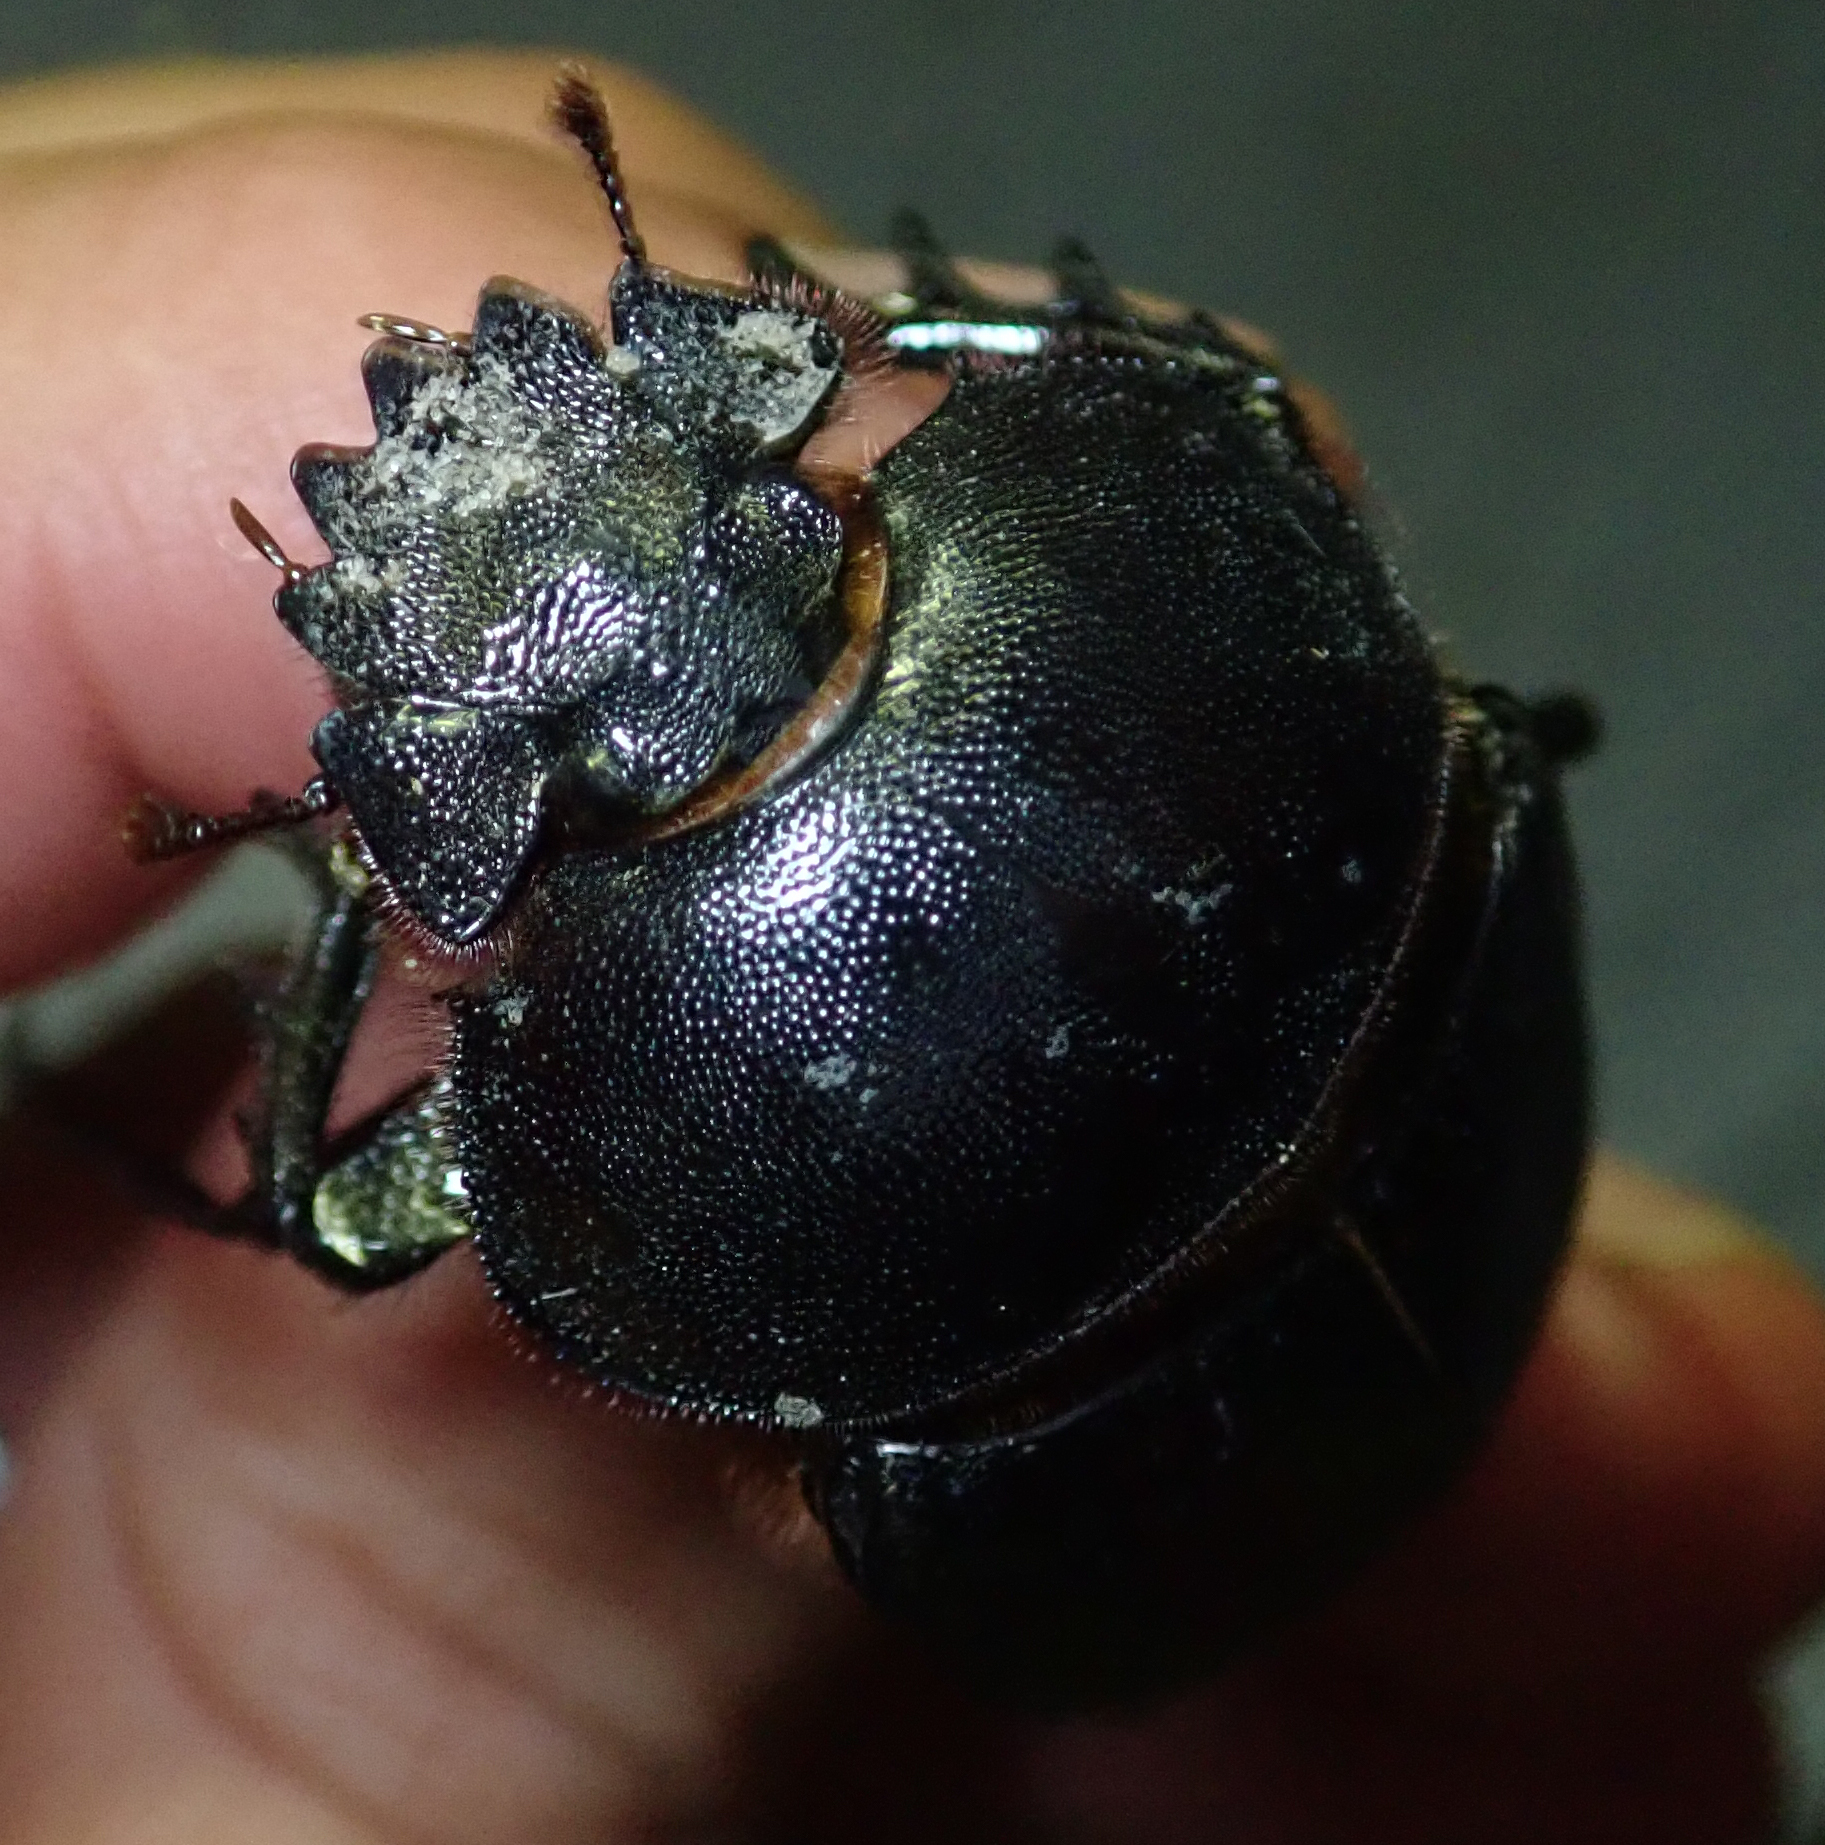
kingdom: Animalia
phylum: Arthropoda
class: Insecta
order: Coleoptera
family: Scarabaeidae
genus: Kheper
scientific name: Kheper prodigiosus
